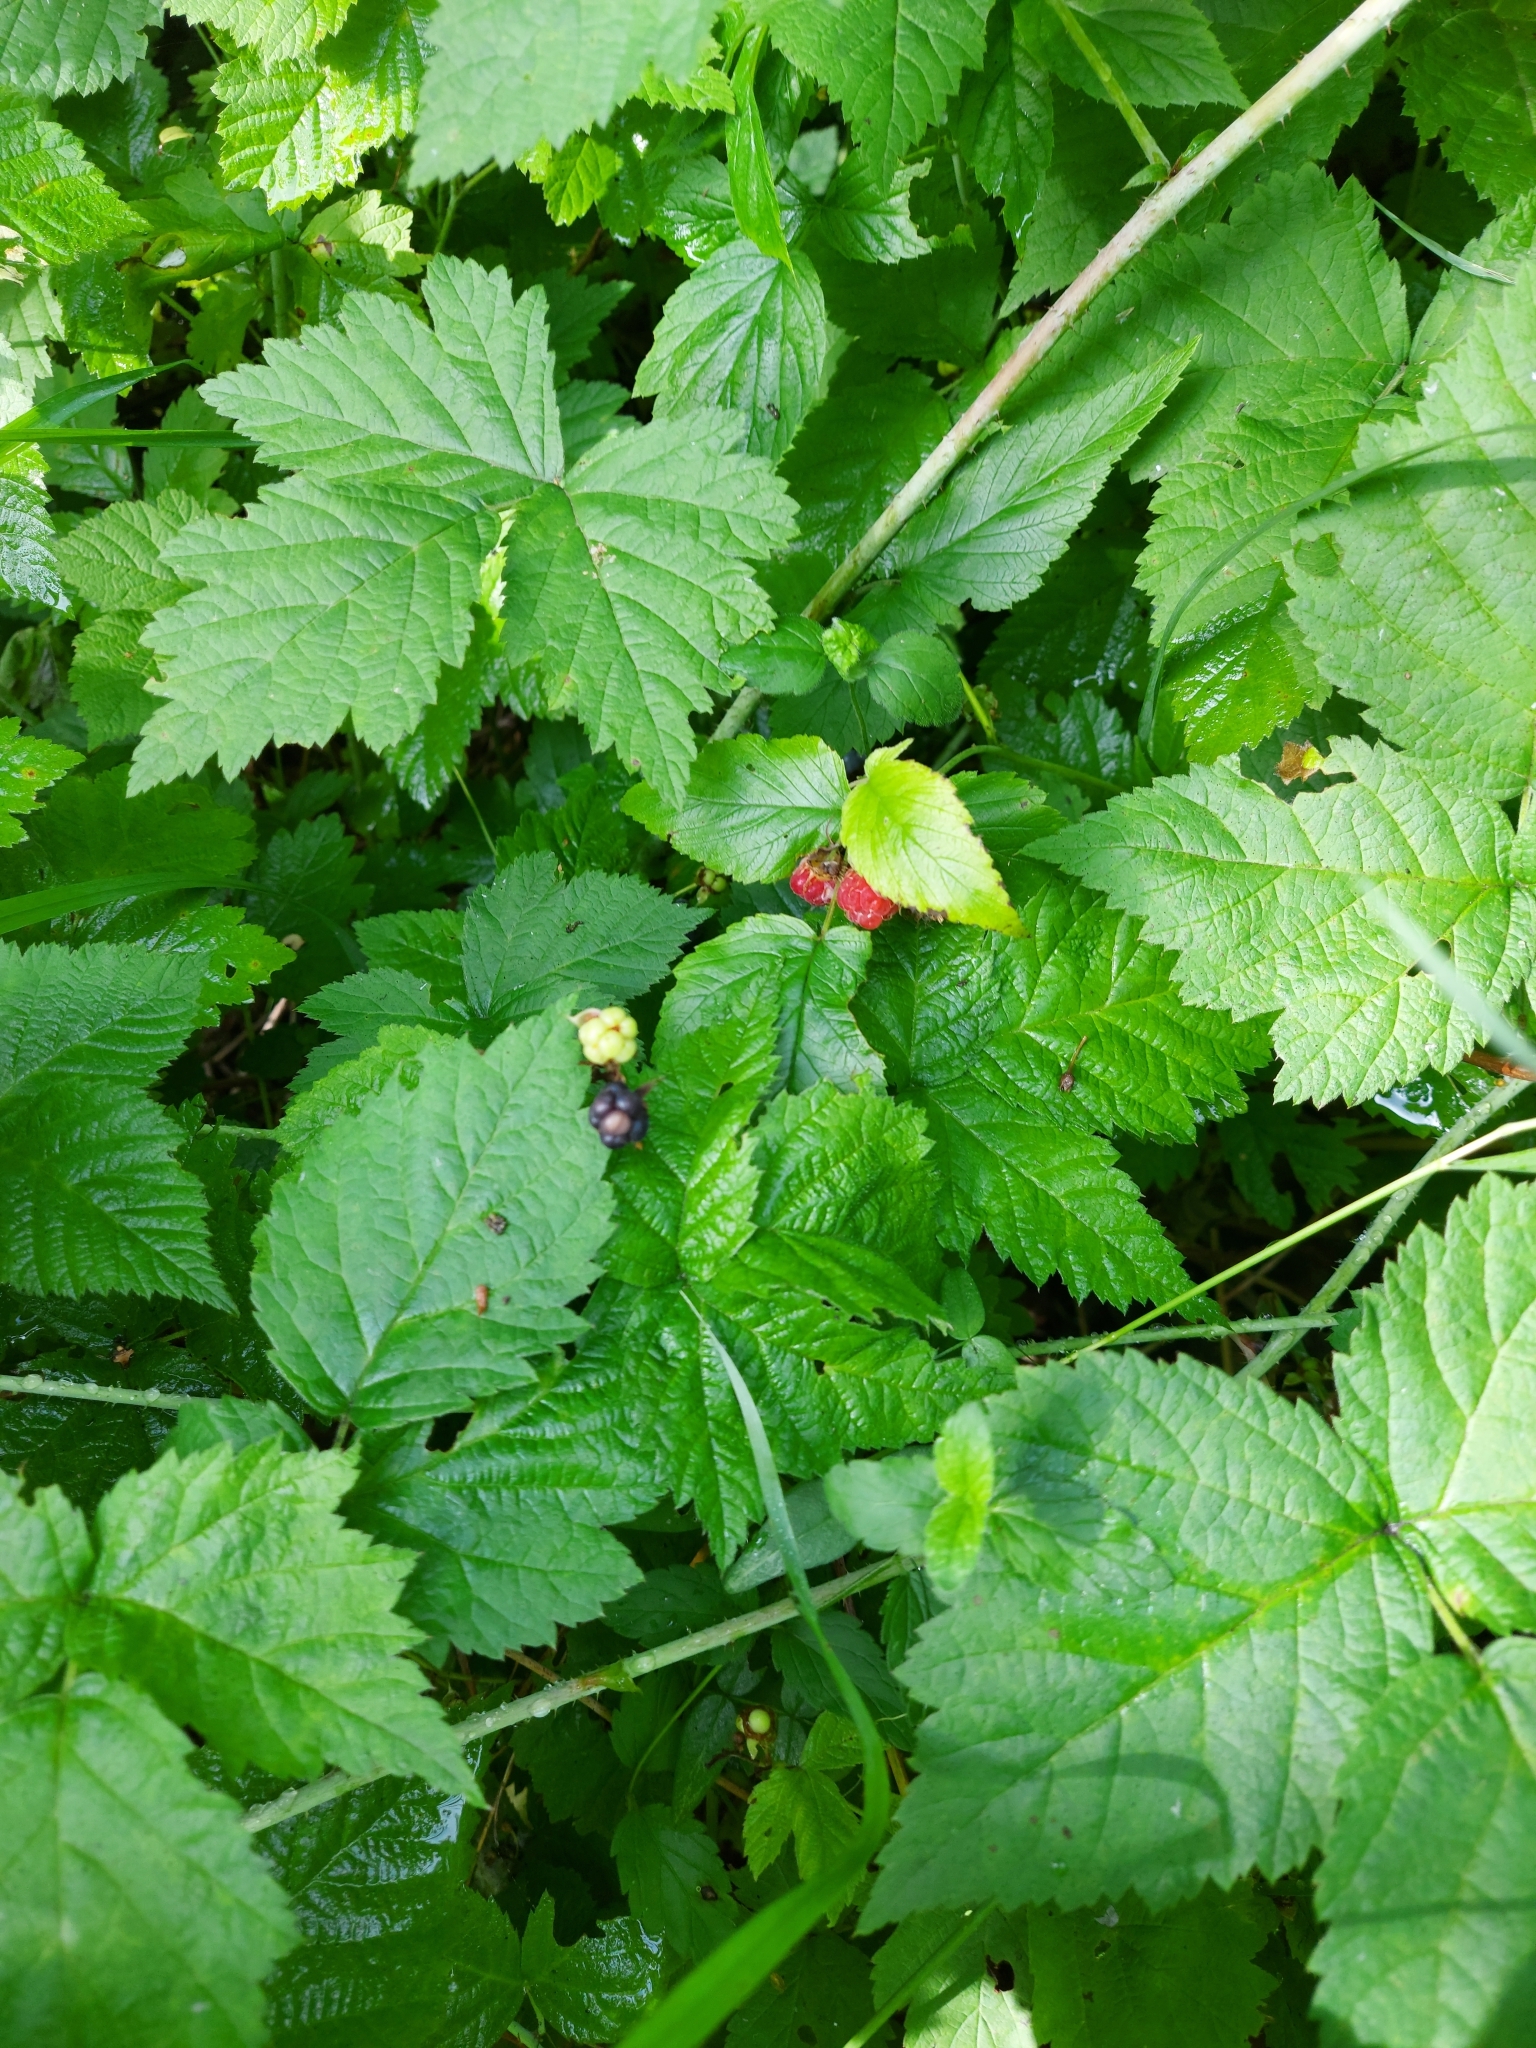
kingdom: Plantae
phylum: Tracheophyta
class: Magnoliopsida
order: Rosales
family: Rosaceae
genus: Rubus
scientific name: Rubus caesius
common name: Dewberry
